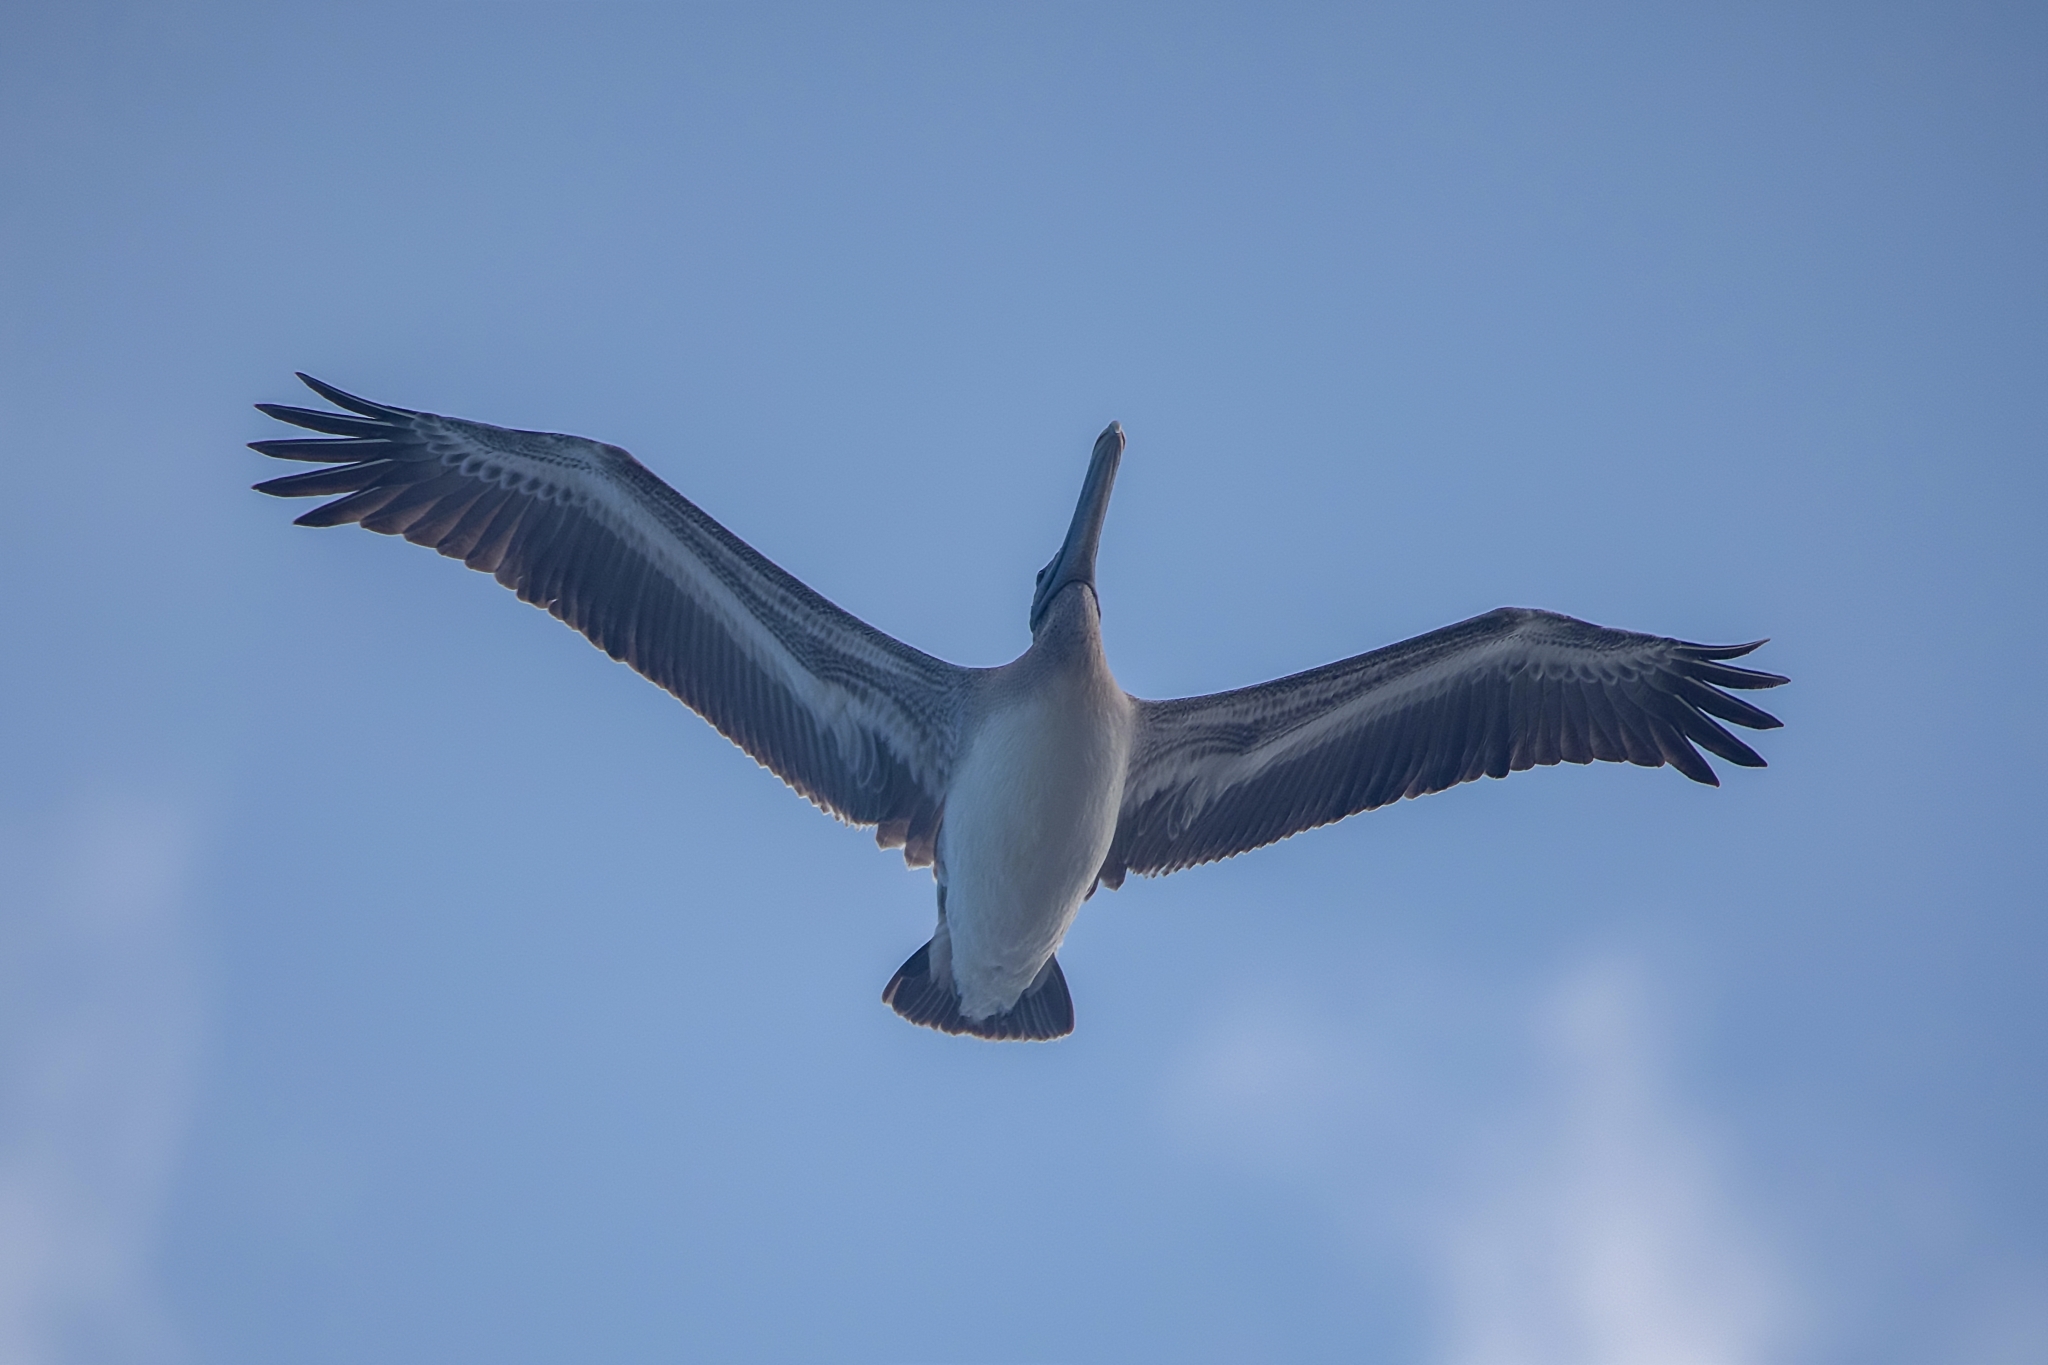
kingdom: Animalia
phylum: Chordata
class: Aves
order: Pelecaniformes
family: Pelecanidae
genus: Pelecanus
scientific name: Pelecanus occidentalis
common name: Brown pelican
